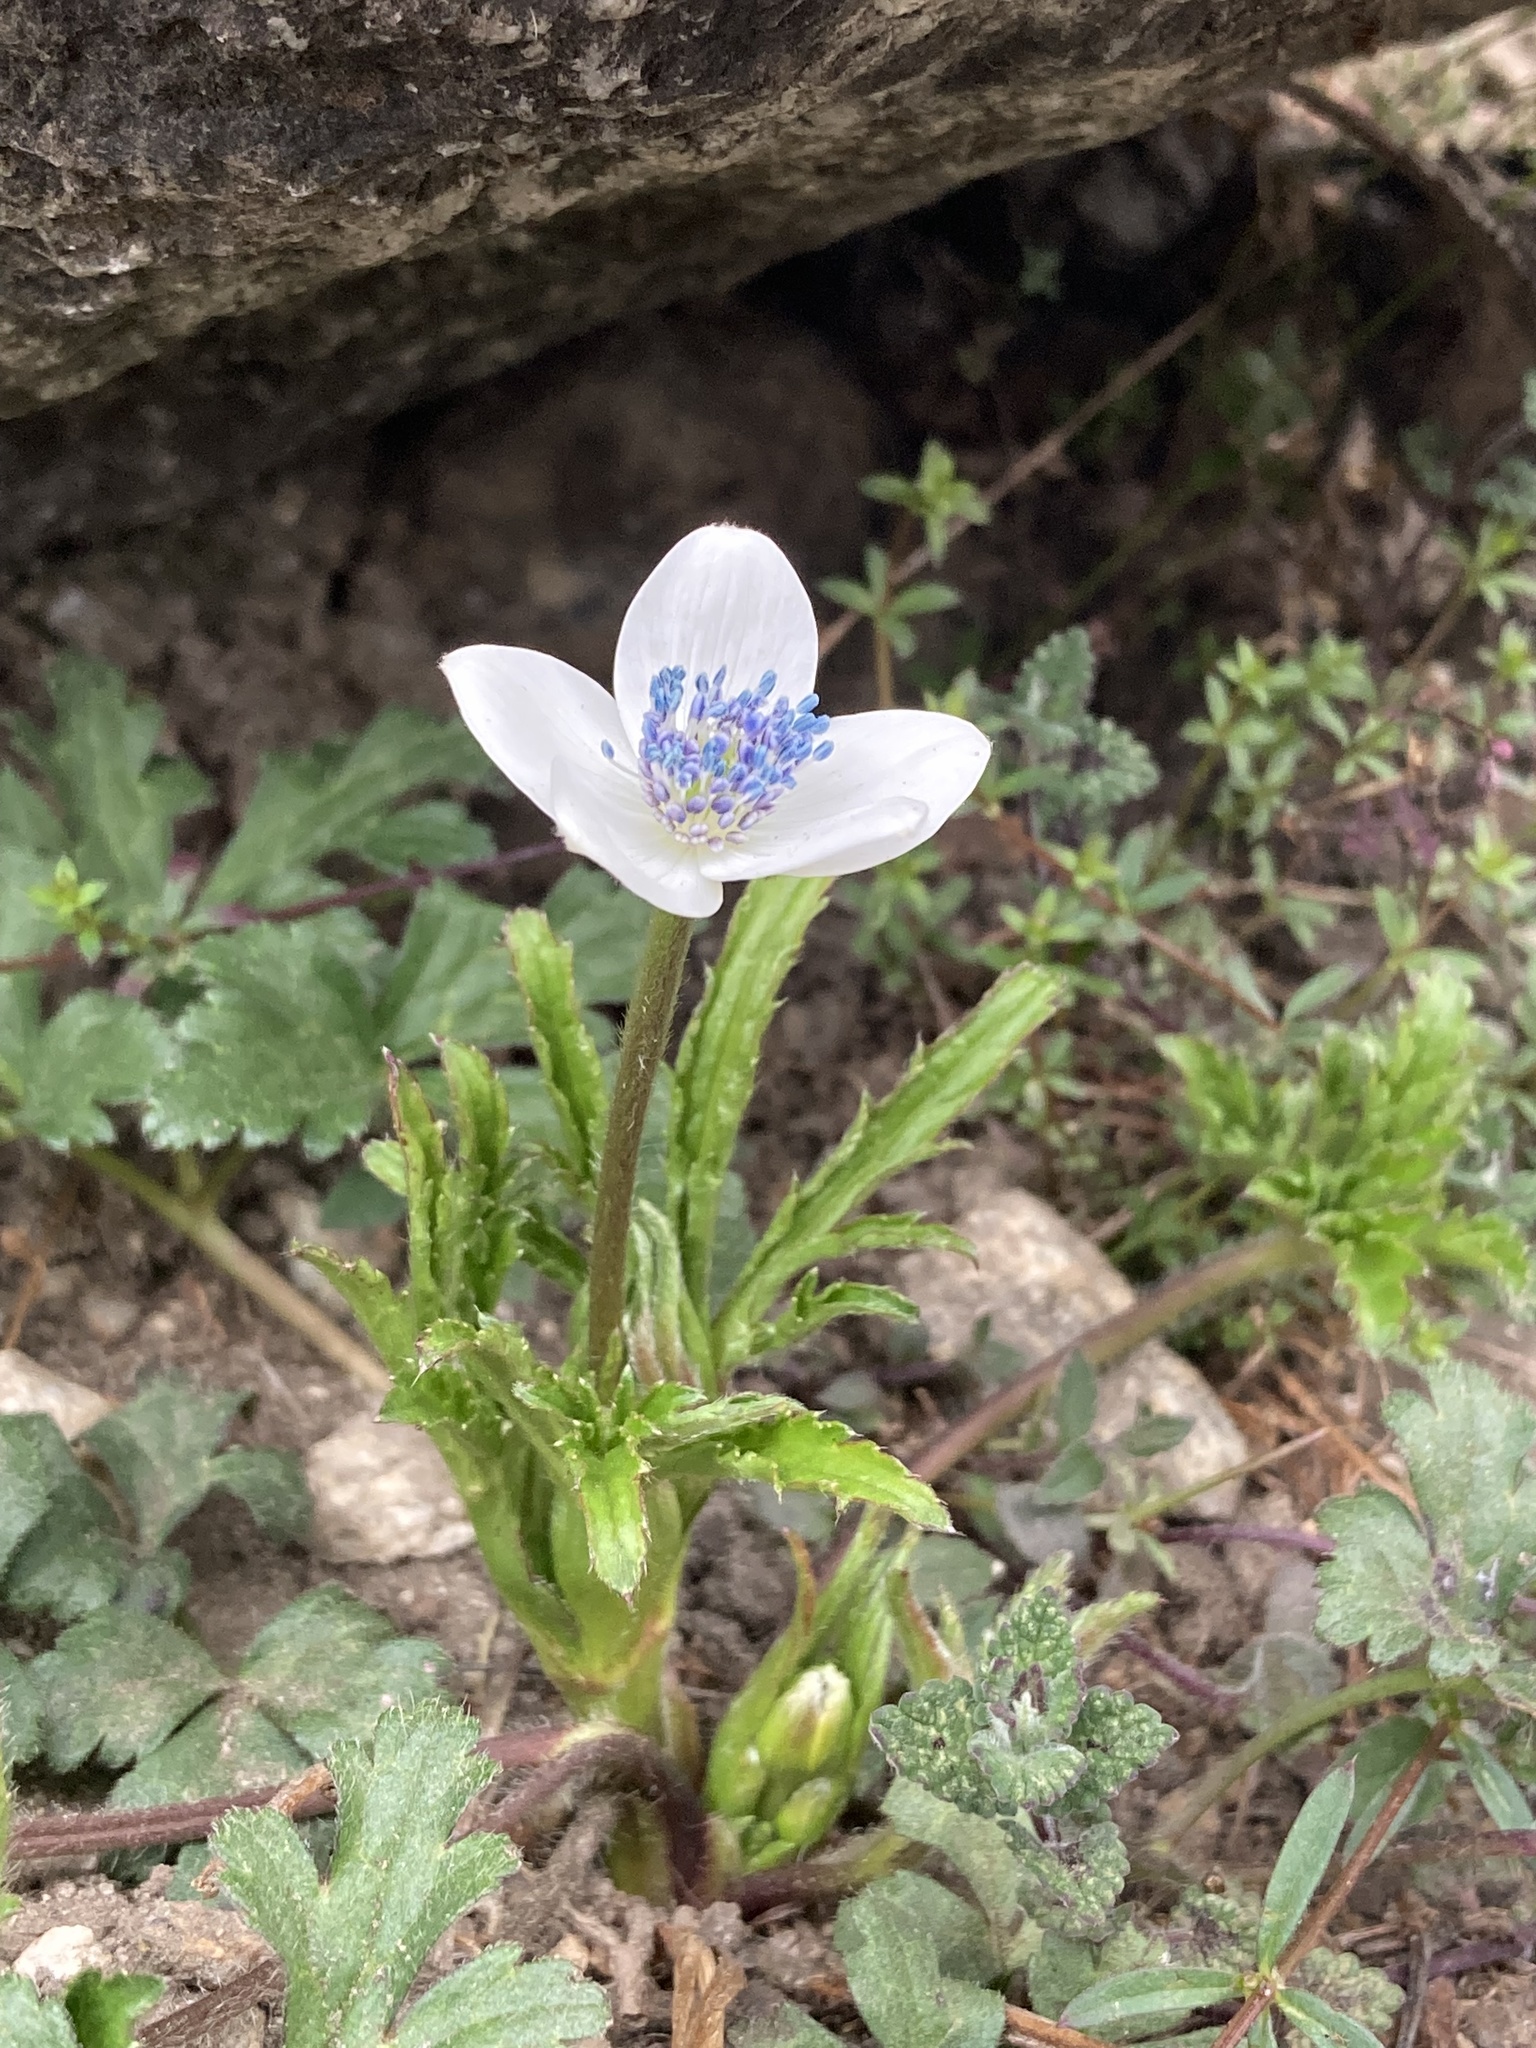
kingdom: Plantae
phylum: Tracheophyta
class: Magnoliopsida
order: Ranunculales
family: Ranunculaceae
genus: Eriocapitella
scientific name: Eriocapitella rivularis
